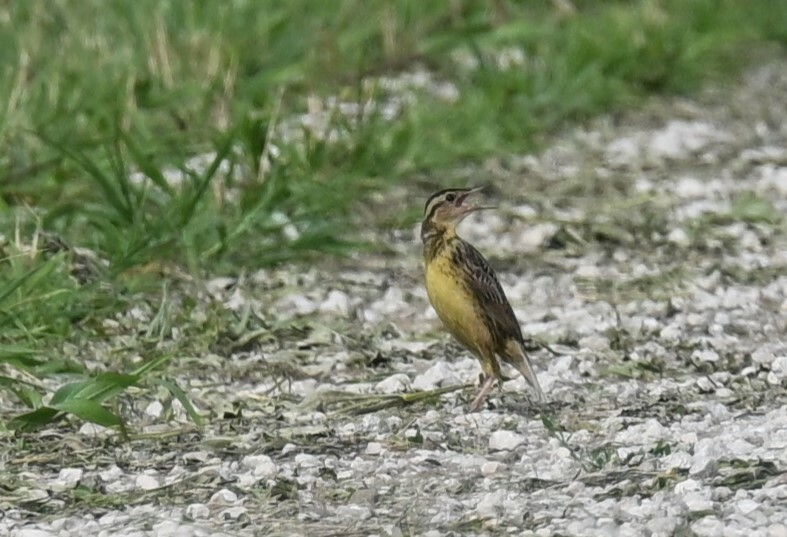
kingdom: Animalia
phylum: Chordata
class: Aves
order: Passeriformes
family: Icteridae
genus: Sturnella
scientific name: Sturnella magna
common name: Eastern meadowlark
